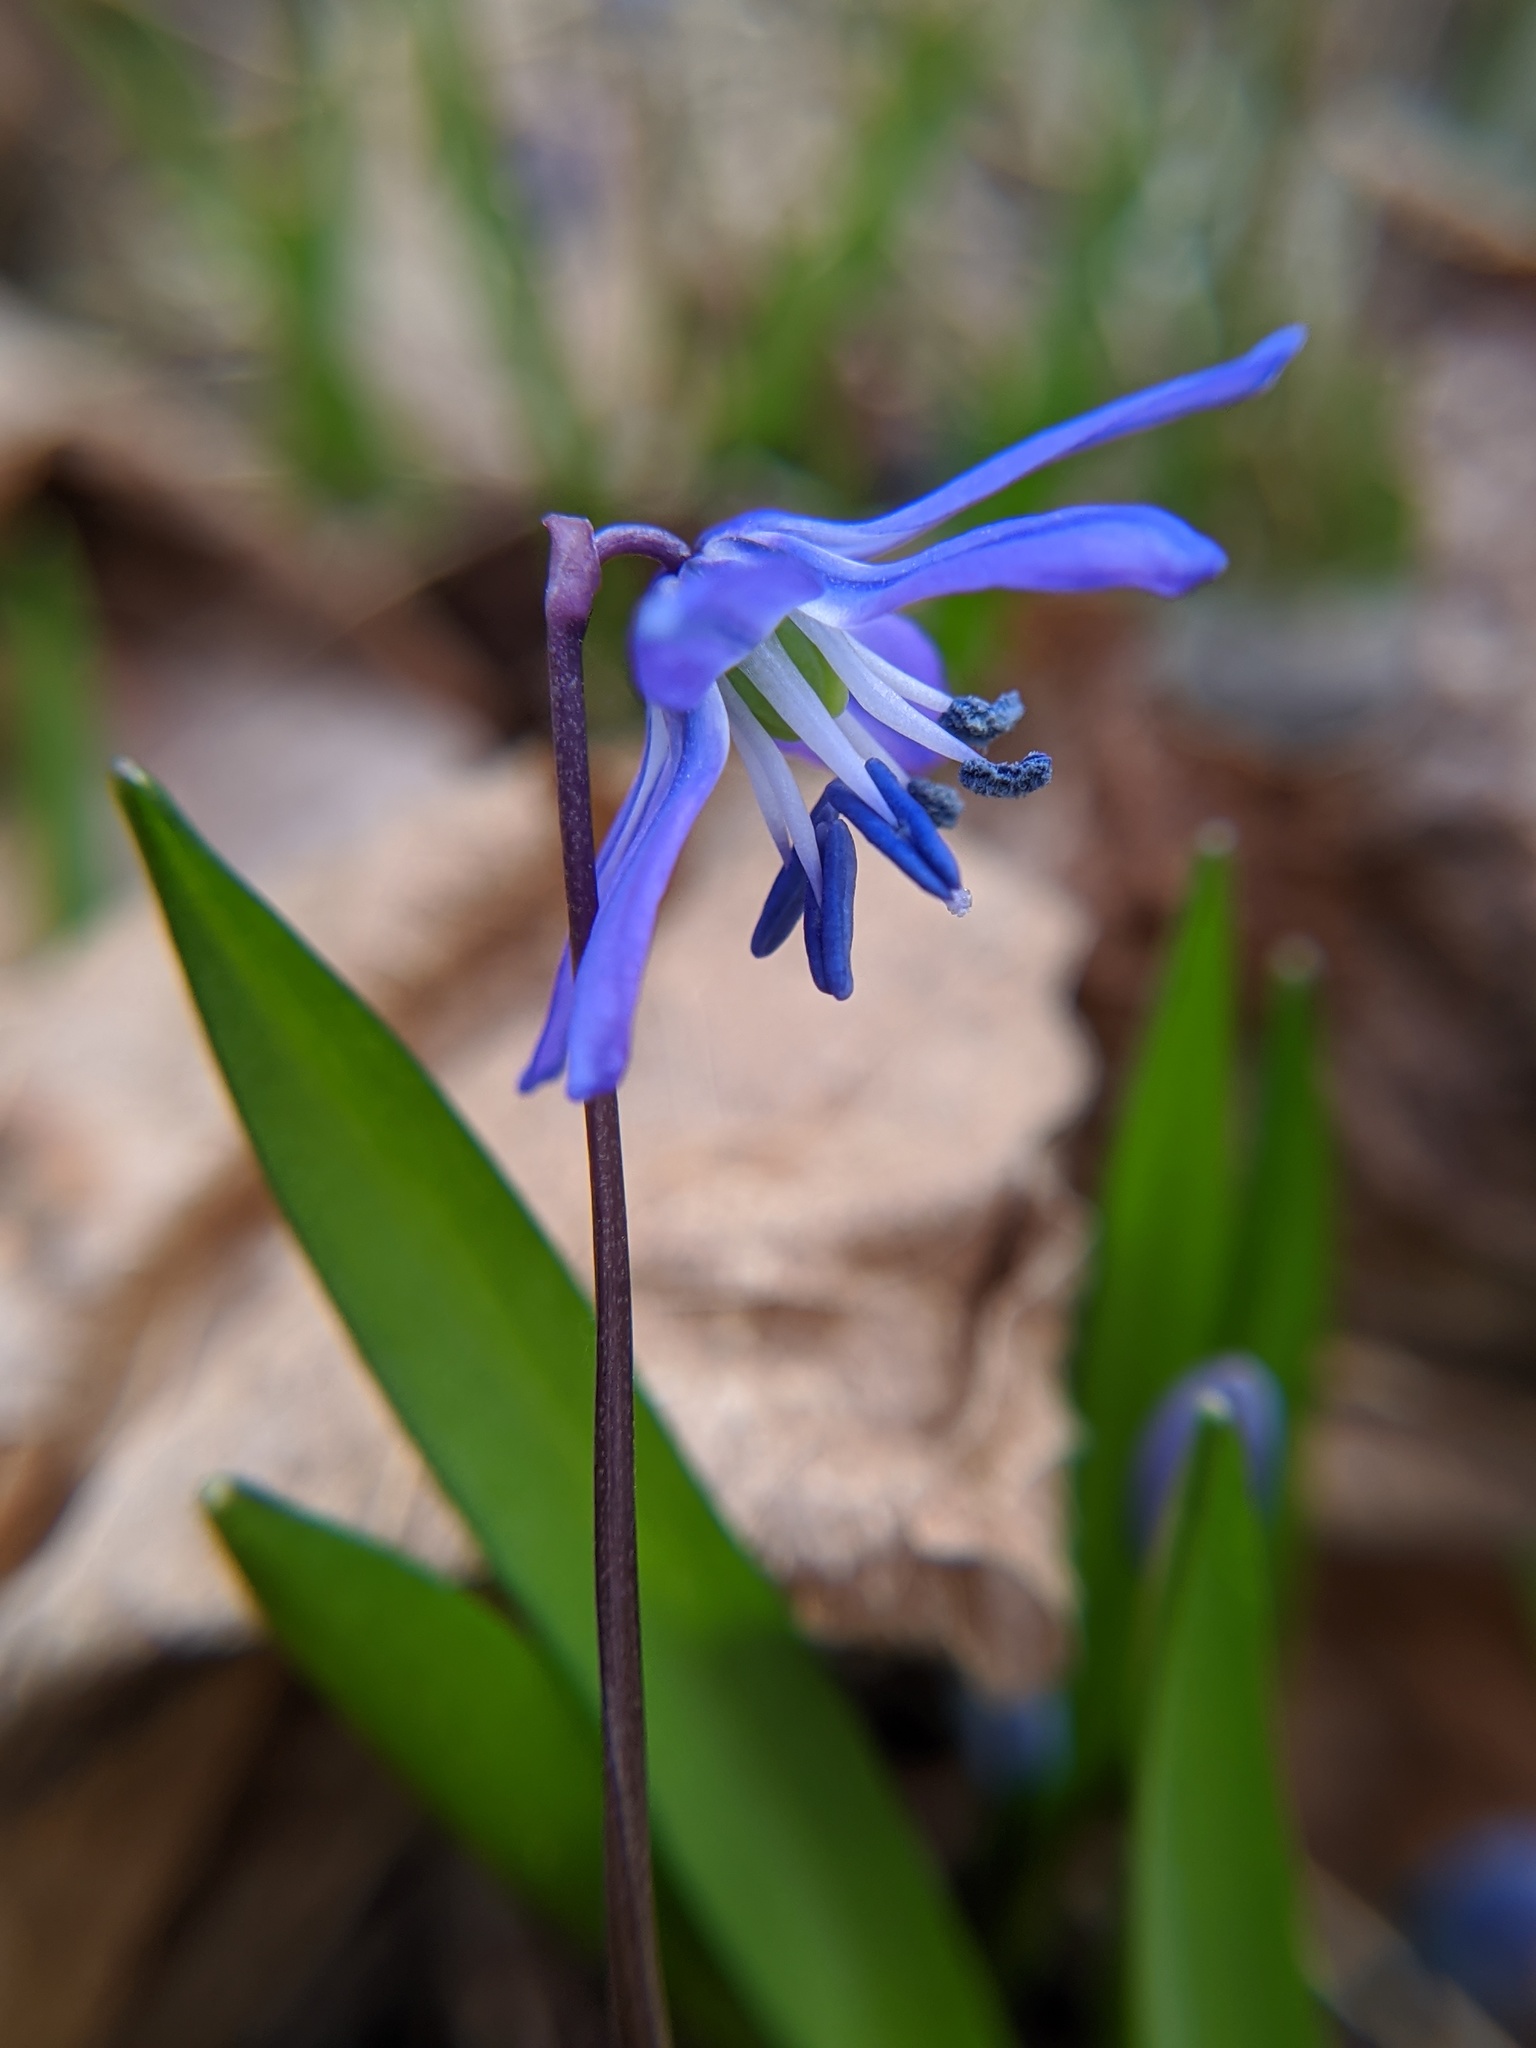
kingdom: Plantae
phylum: Tracheophyta
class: Liliopsida
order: Asparagales
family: Asparagaceae
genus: Scilla
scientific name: Scilla siberica
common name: Siberian squill
